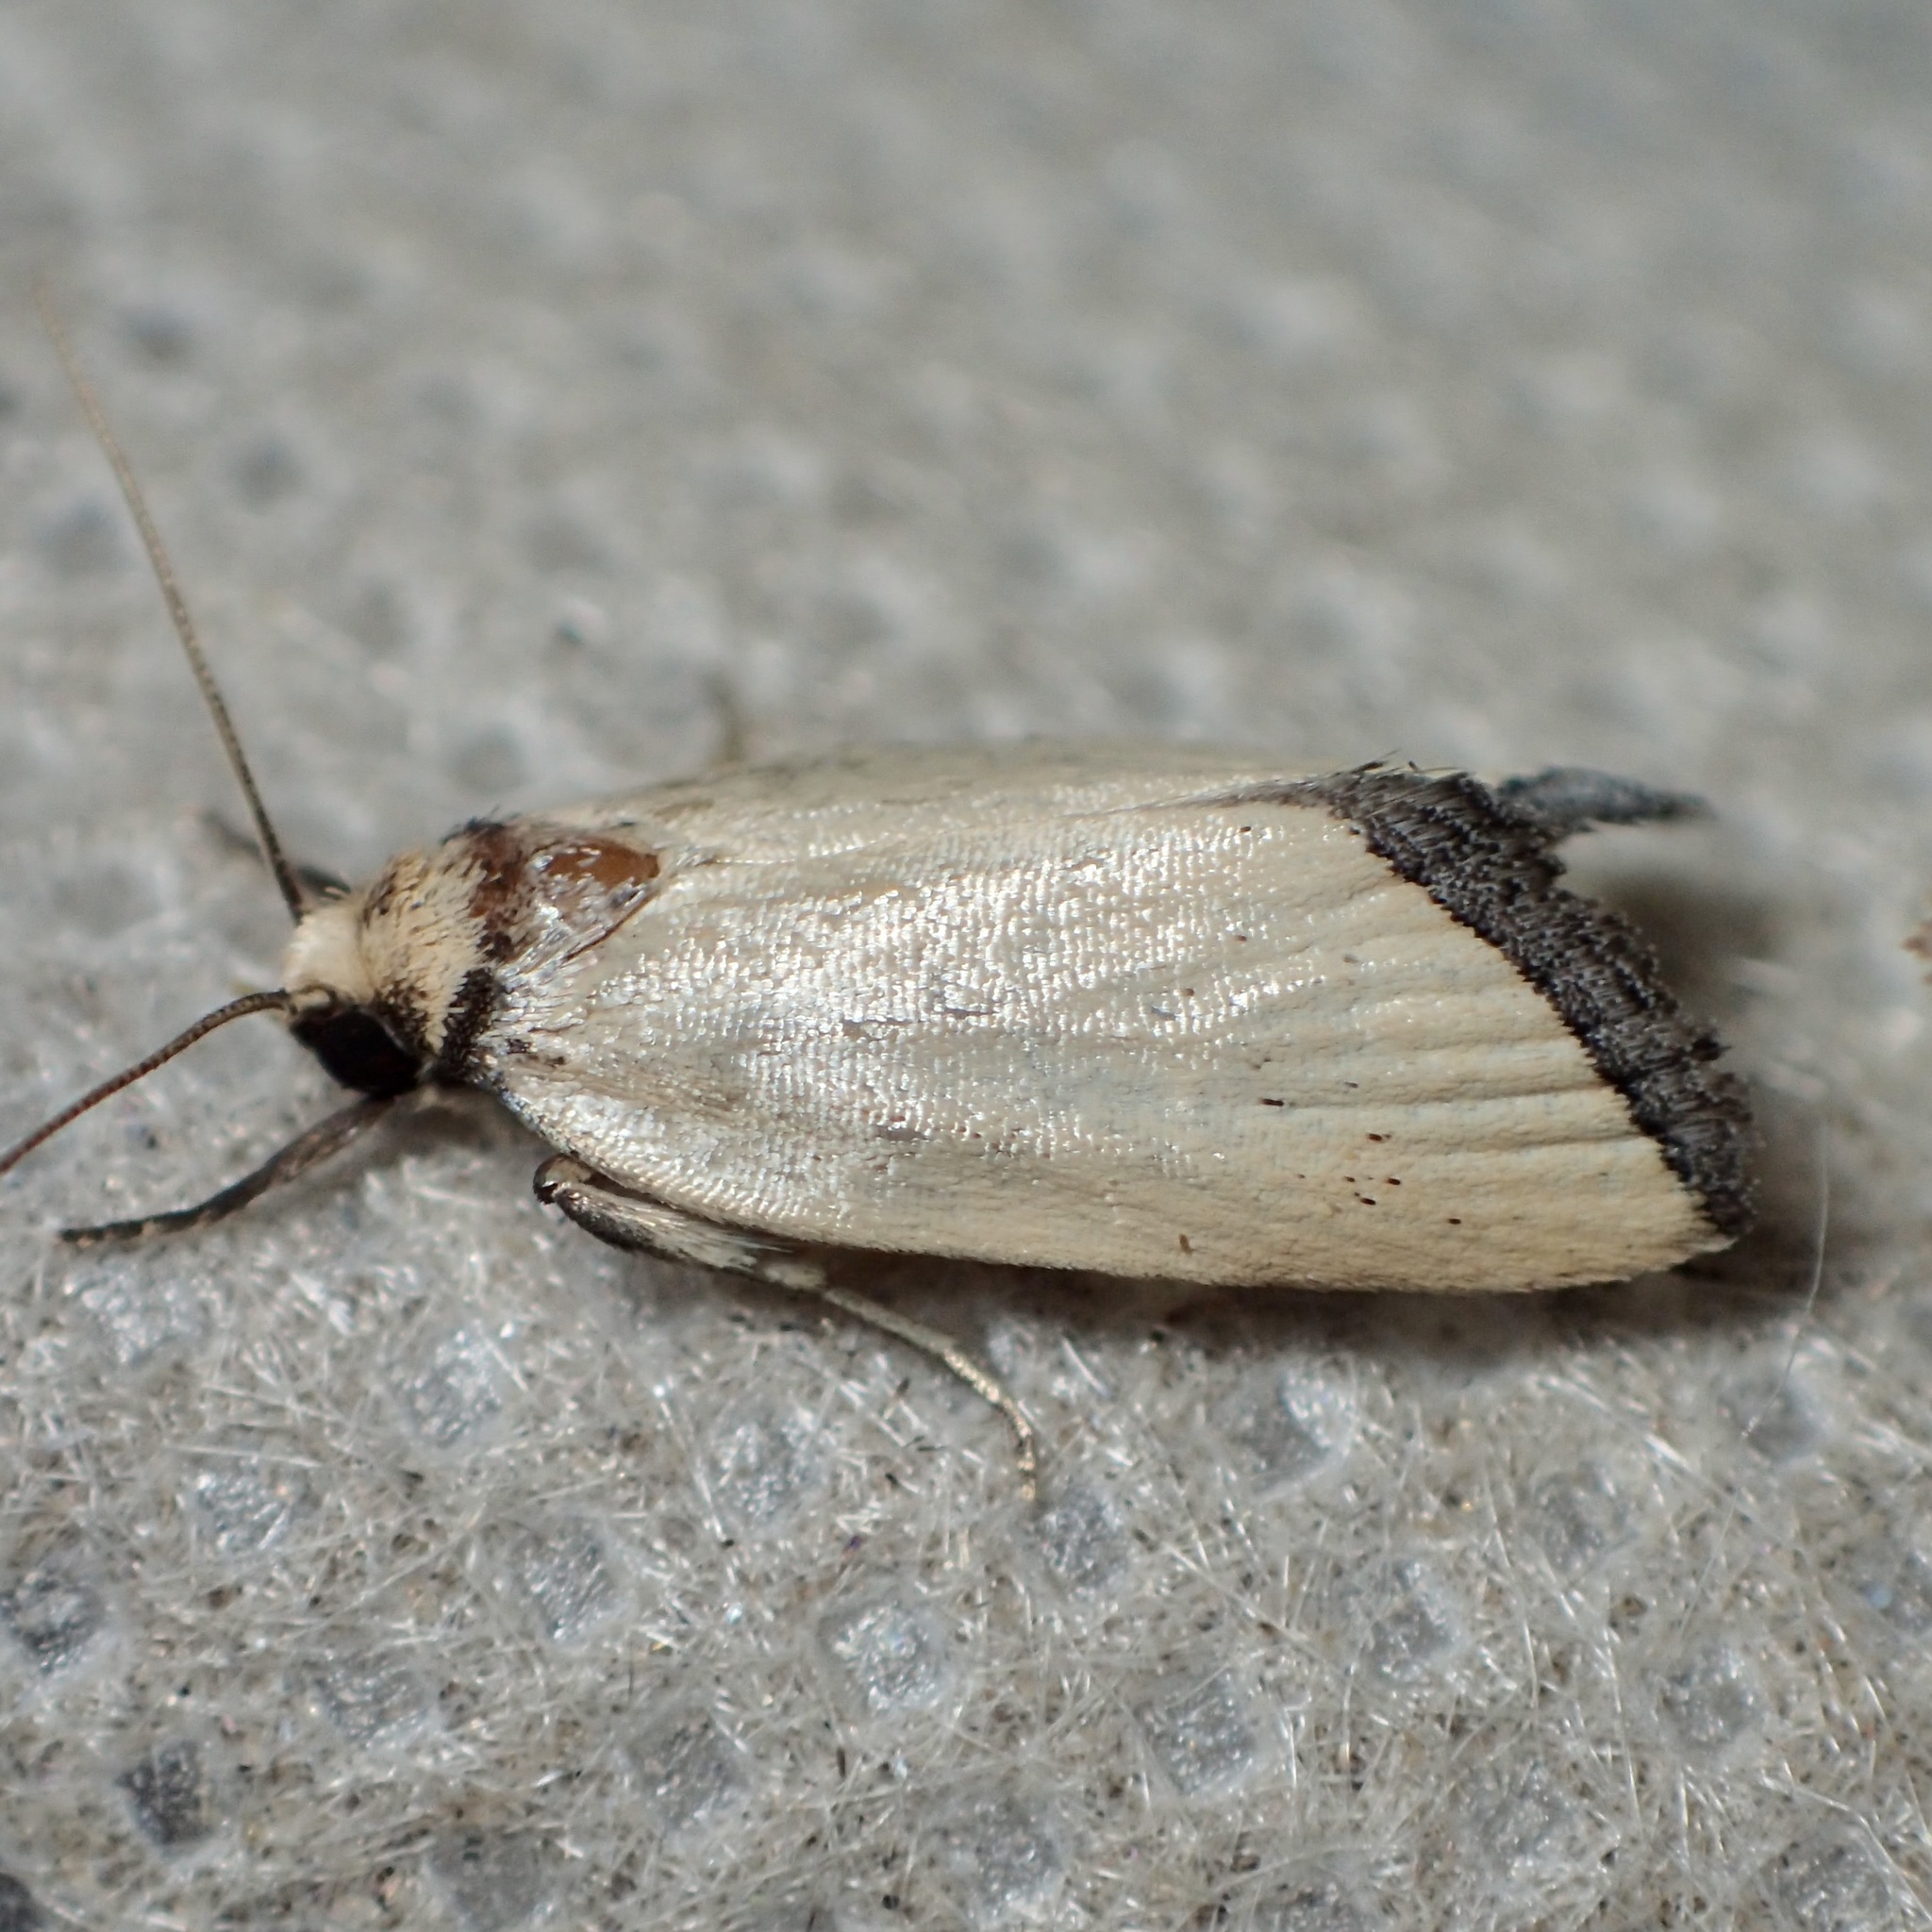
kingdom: Animalia
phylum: Arthropoda
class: Insecta
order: Lepidoptera
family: Noctuidae
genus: Pseudomarimatha
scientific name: Pseudomarimatha flava
